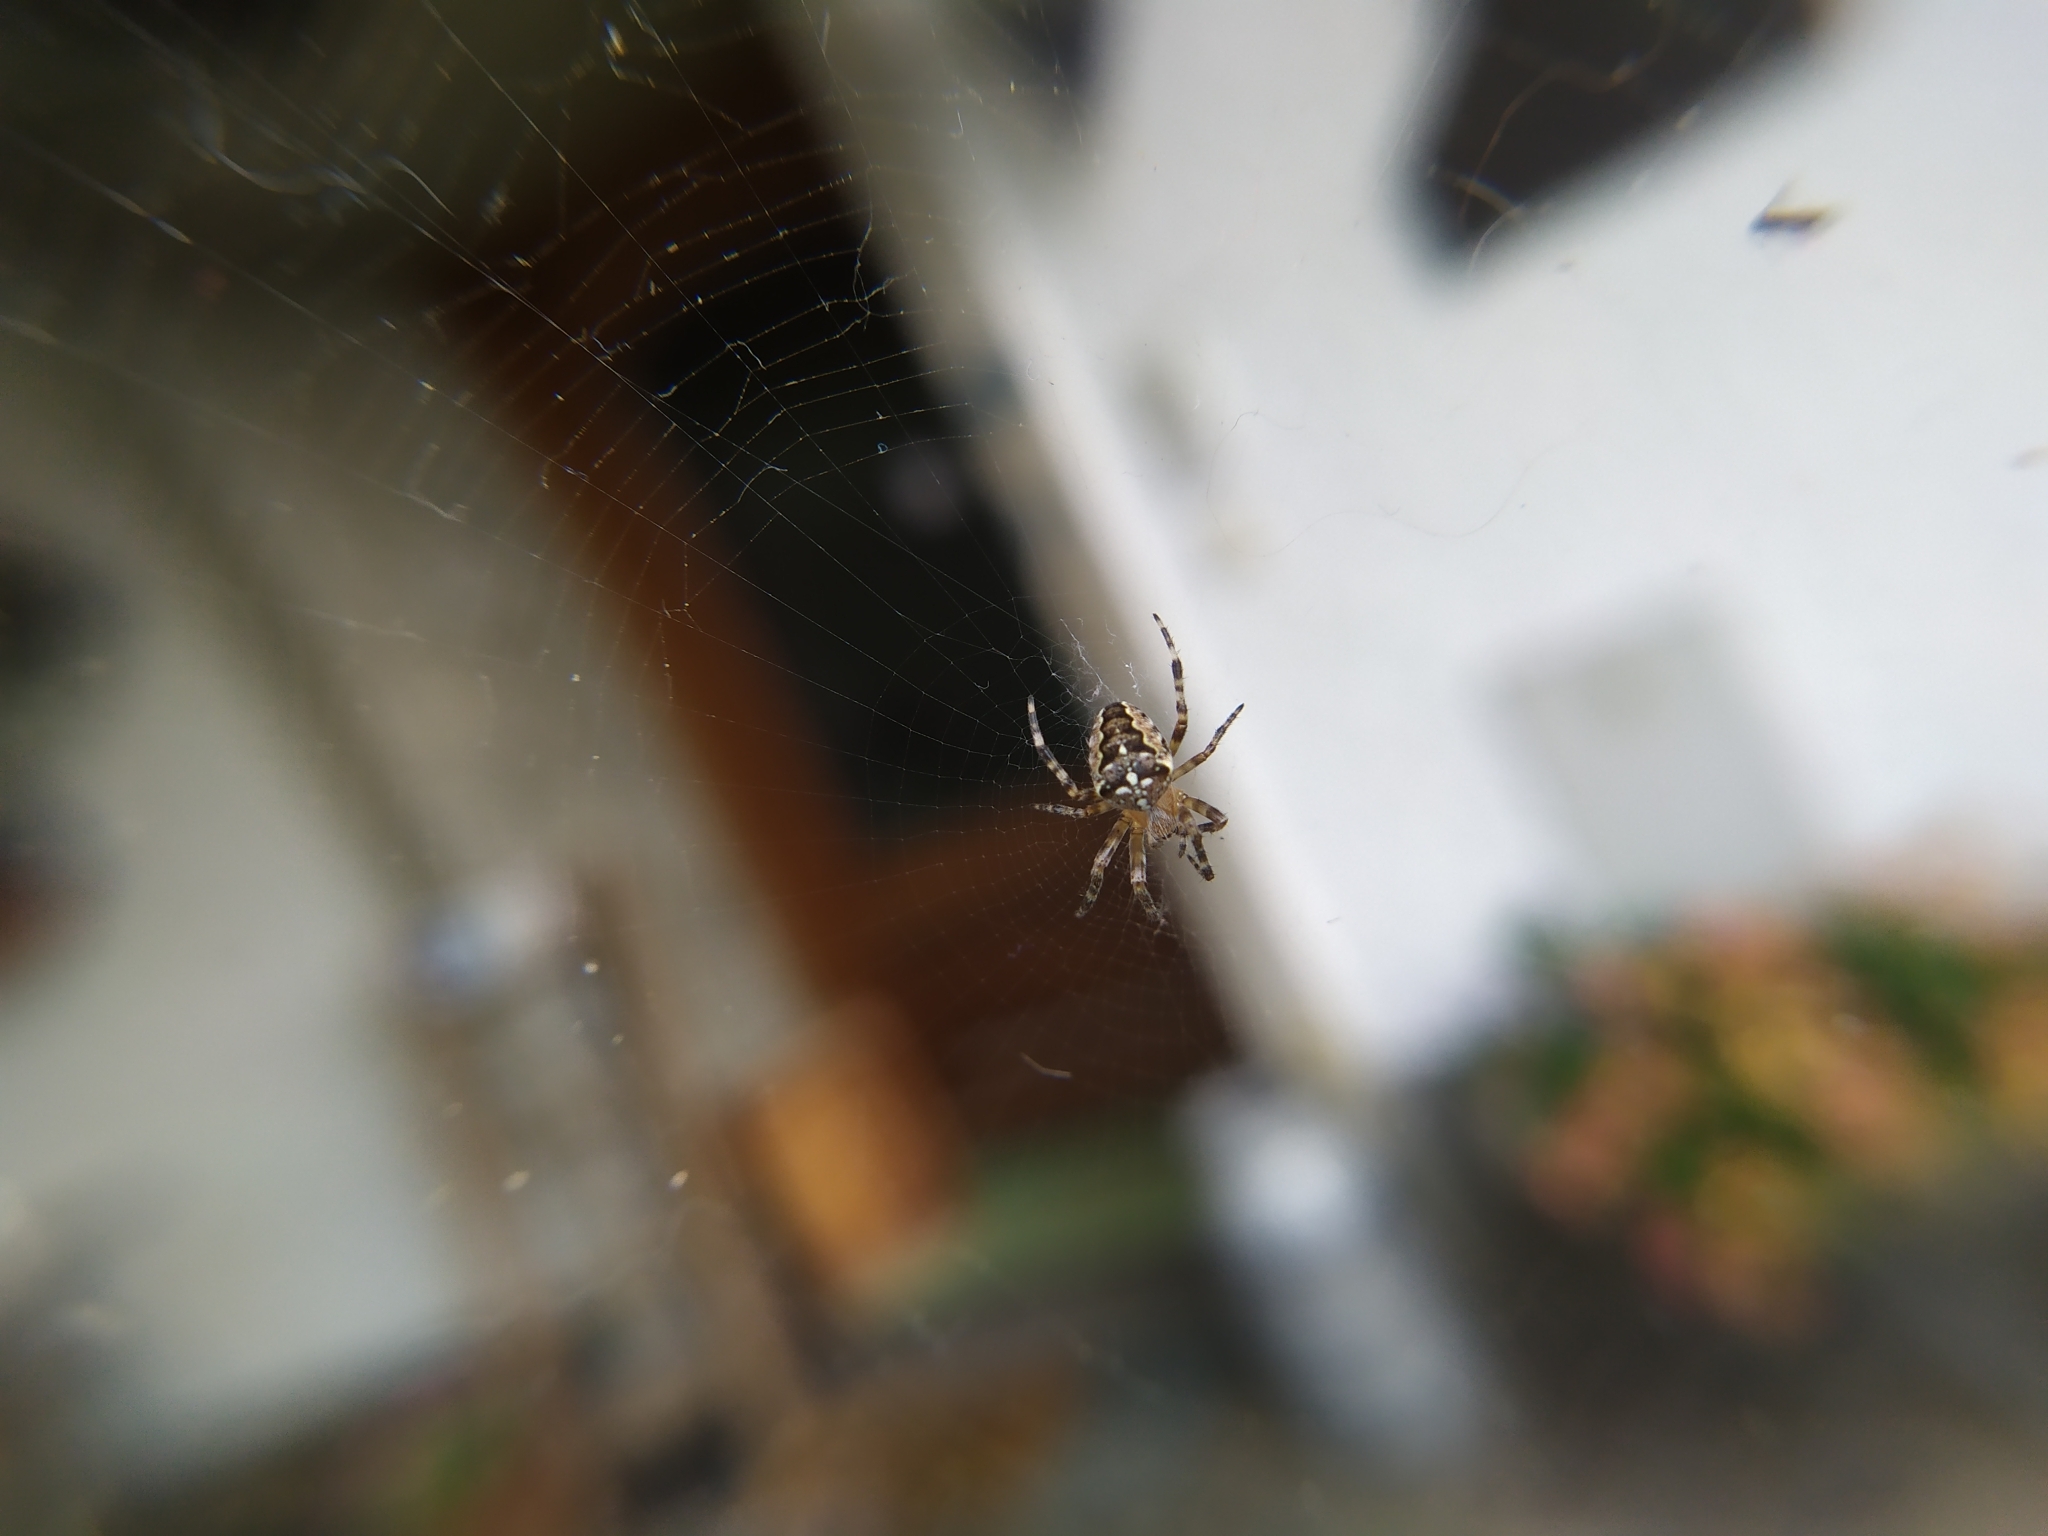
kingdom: Animalia
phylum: Arthropoda
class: Arachnida
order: Araneae
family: Araneidae
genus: Araneus
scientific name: Araneus diadematus
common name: Cross orbweaver
